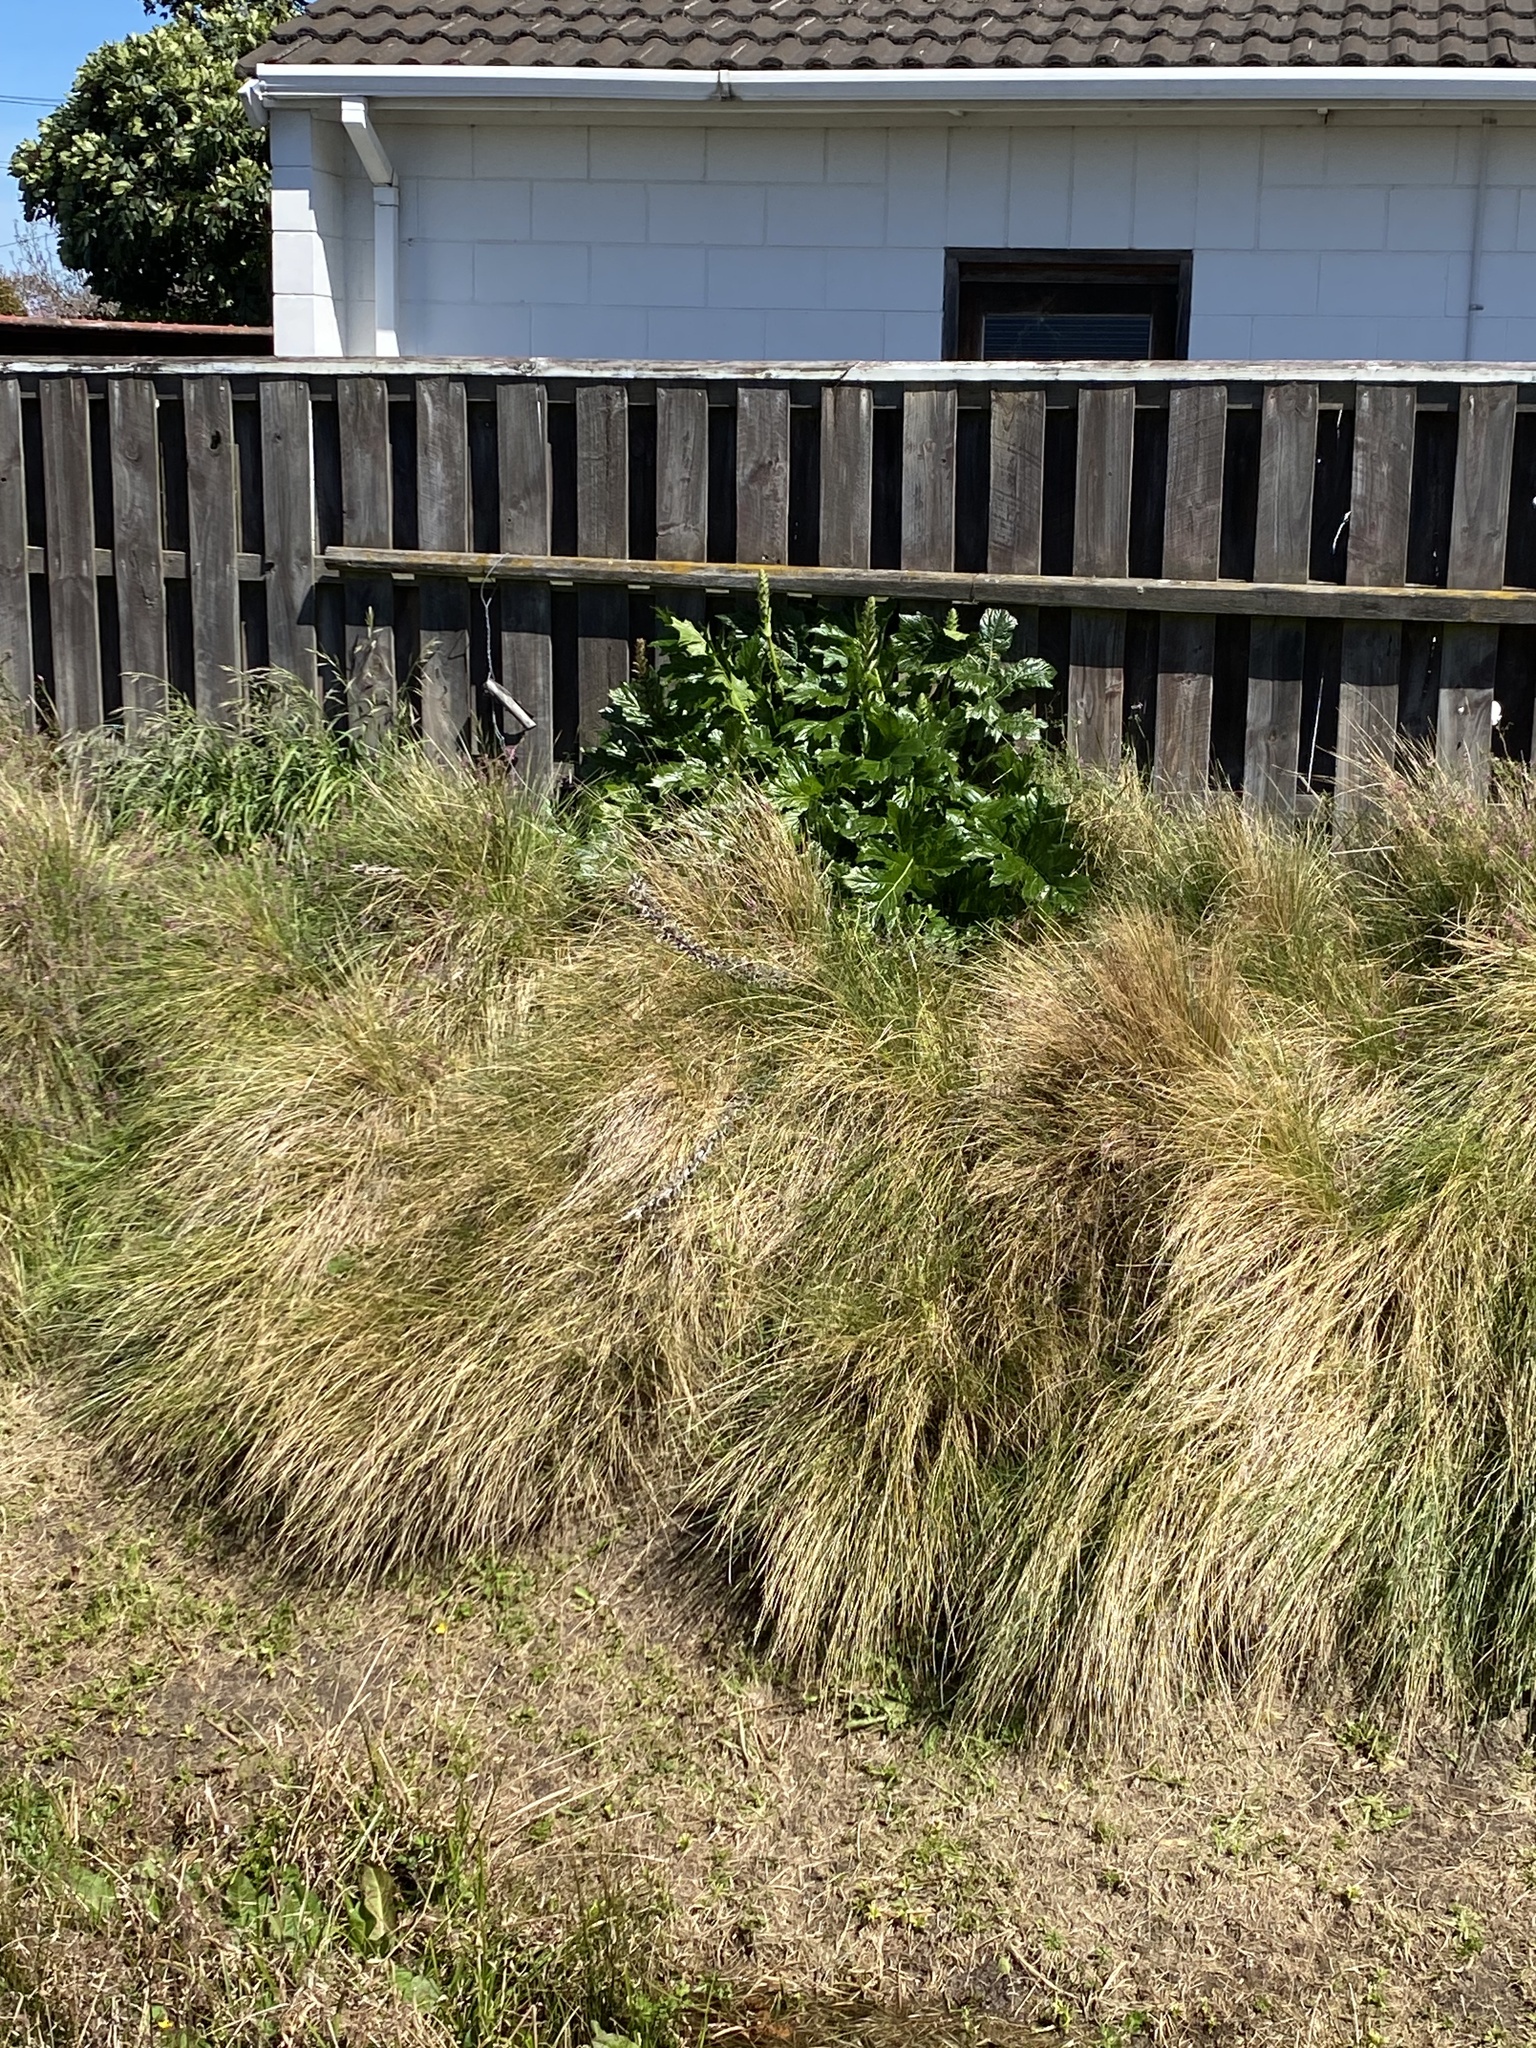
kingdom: Plantae
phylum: Tracheophyta
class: Magnoliopsida
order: Lamiales
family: Acanthaceae
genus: Acanthus
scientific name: Acanthus mollis
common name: Bear's-breech
